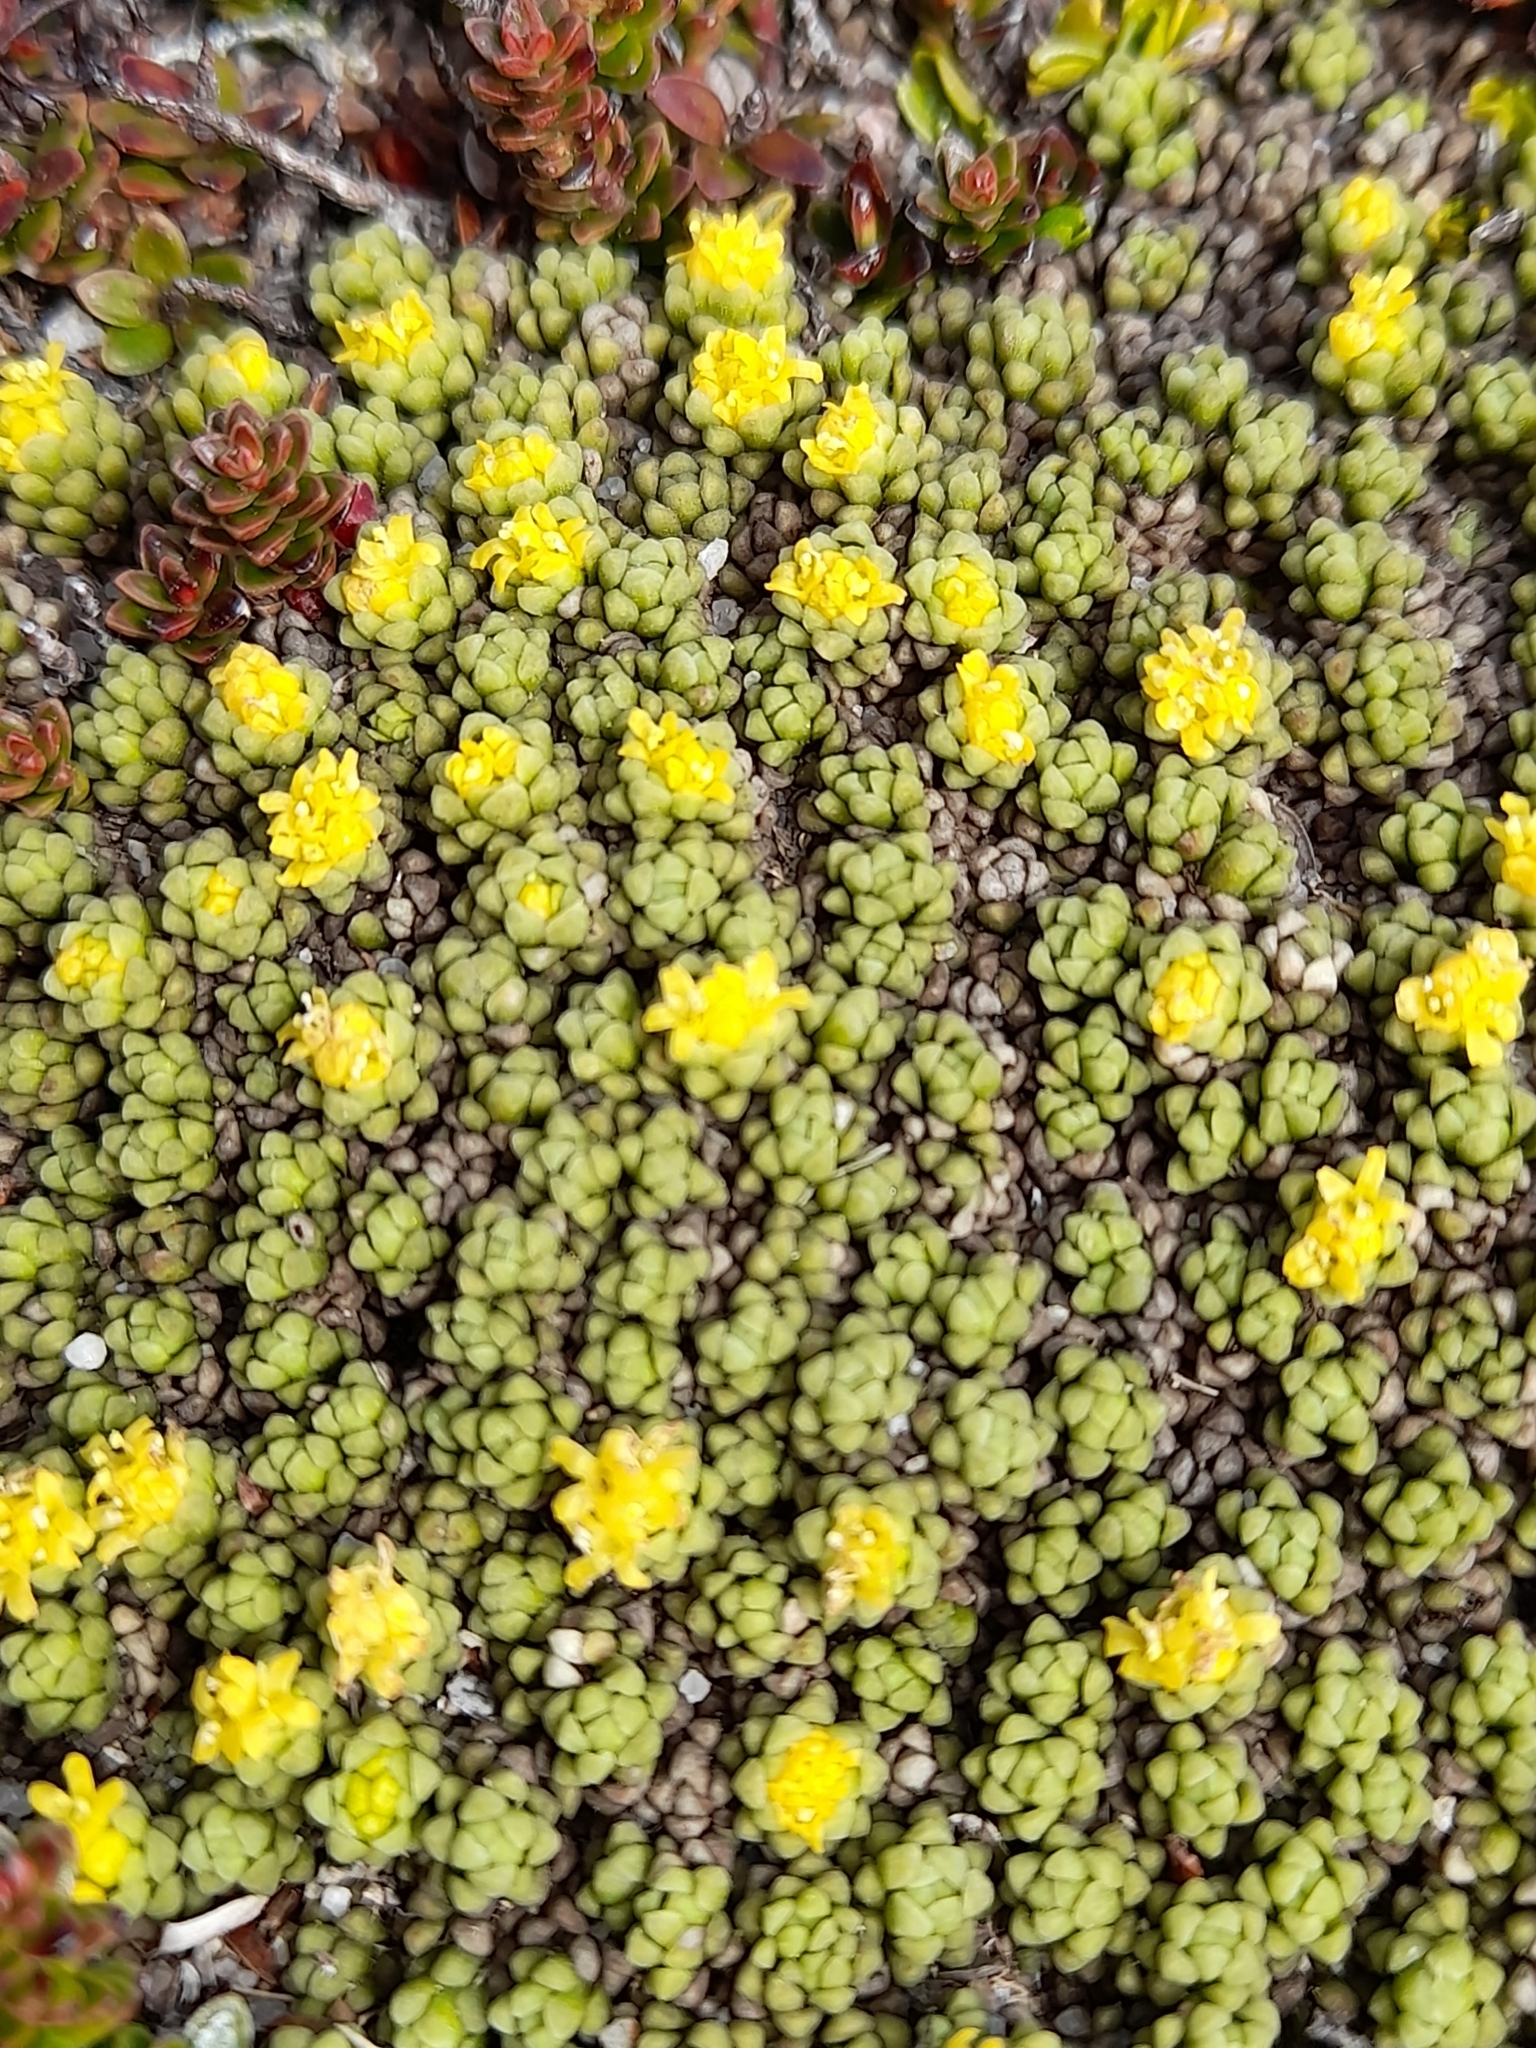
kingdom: Plantae
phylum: Tracheophyta
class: Magnoliopsida
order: Dipsacales
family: Caprifoliaceae
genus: Valeriana
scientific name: Valeriana sedifolia
